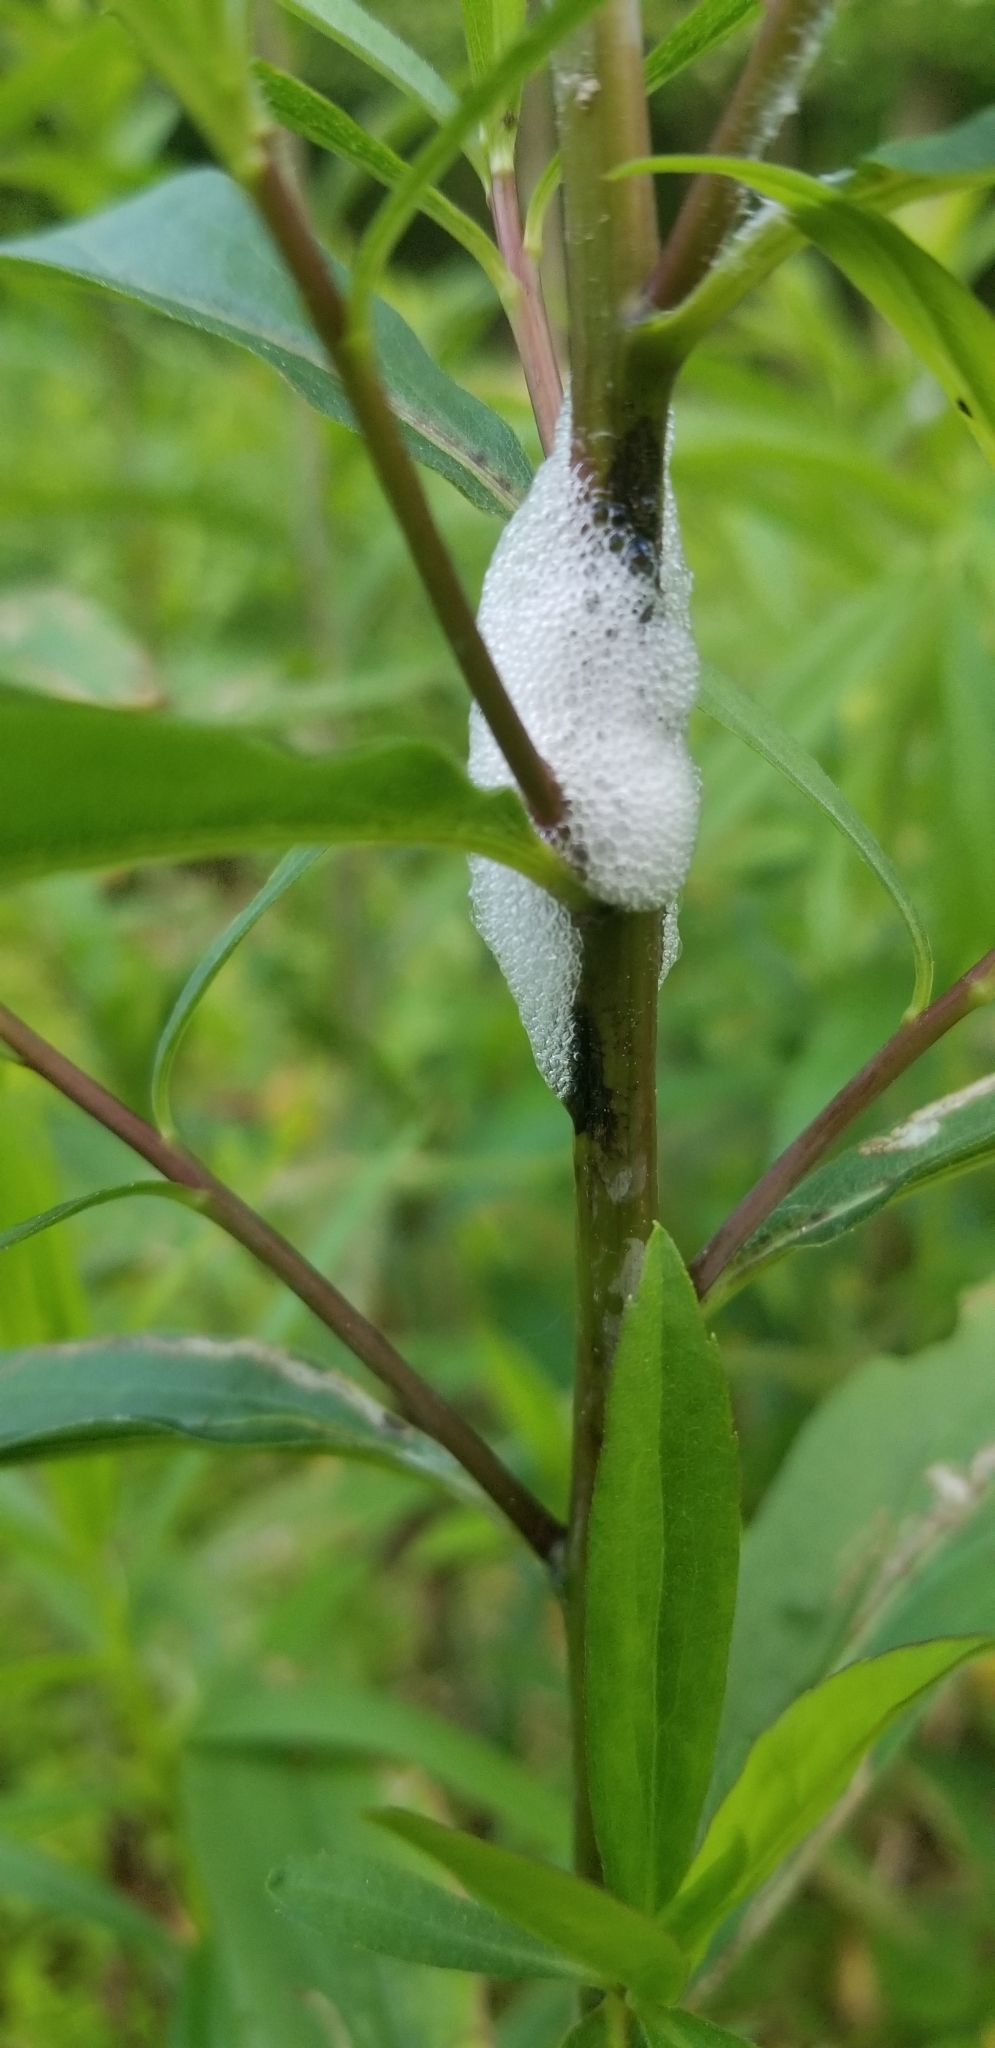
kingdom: Animalia
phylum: Arthropoda
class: Insecta
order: Hemiptera
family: Aphrophoridae
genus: Philaenus
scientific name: Philaenus spumarius
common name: Meadow spittlebug
